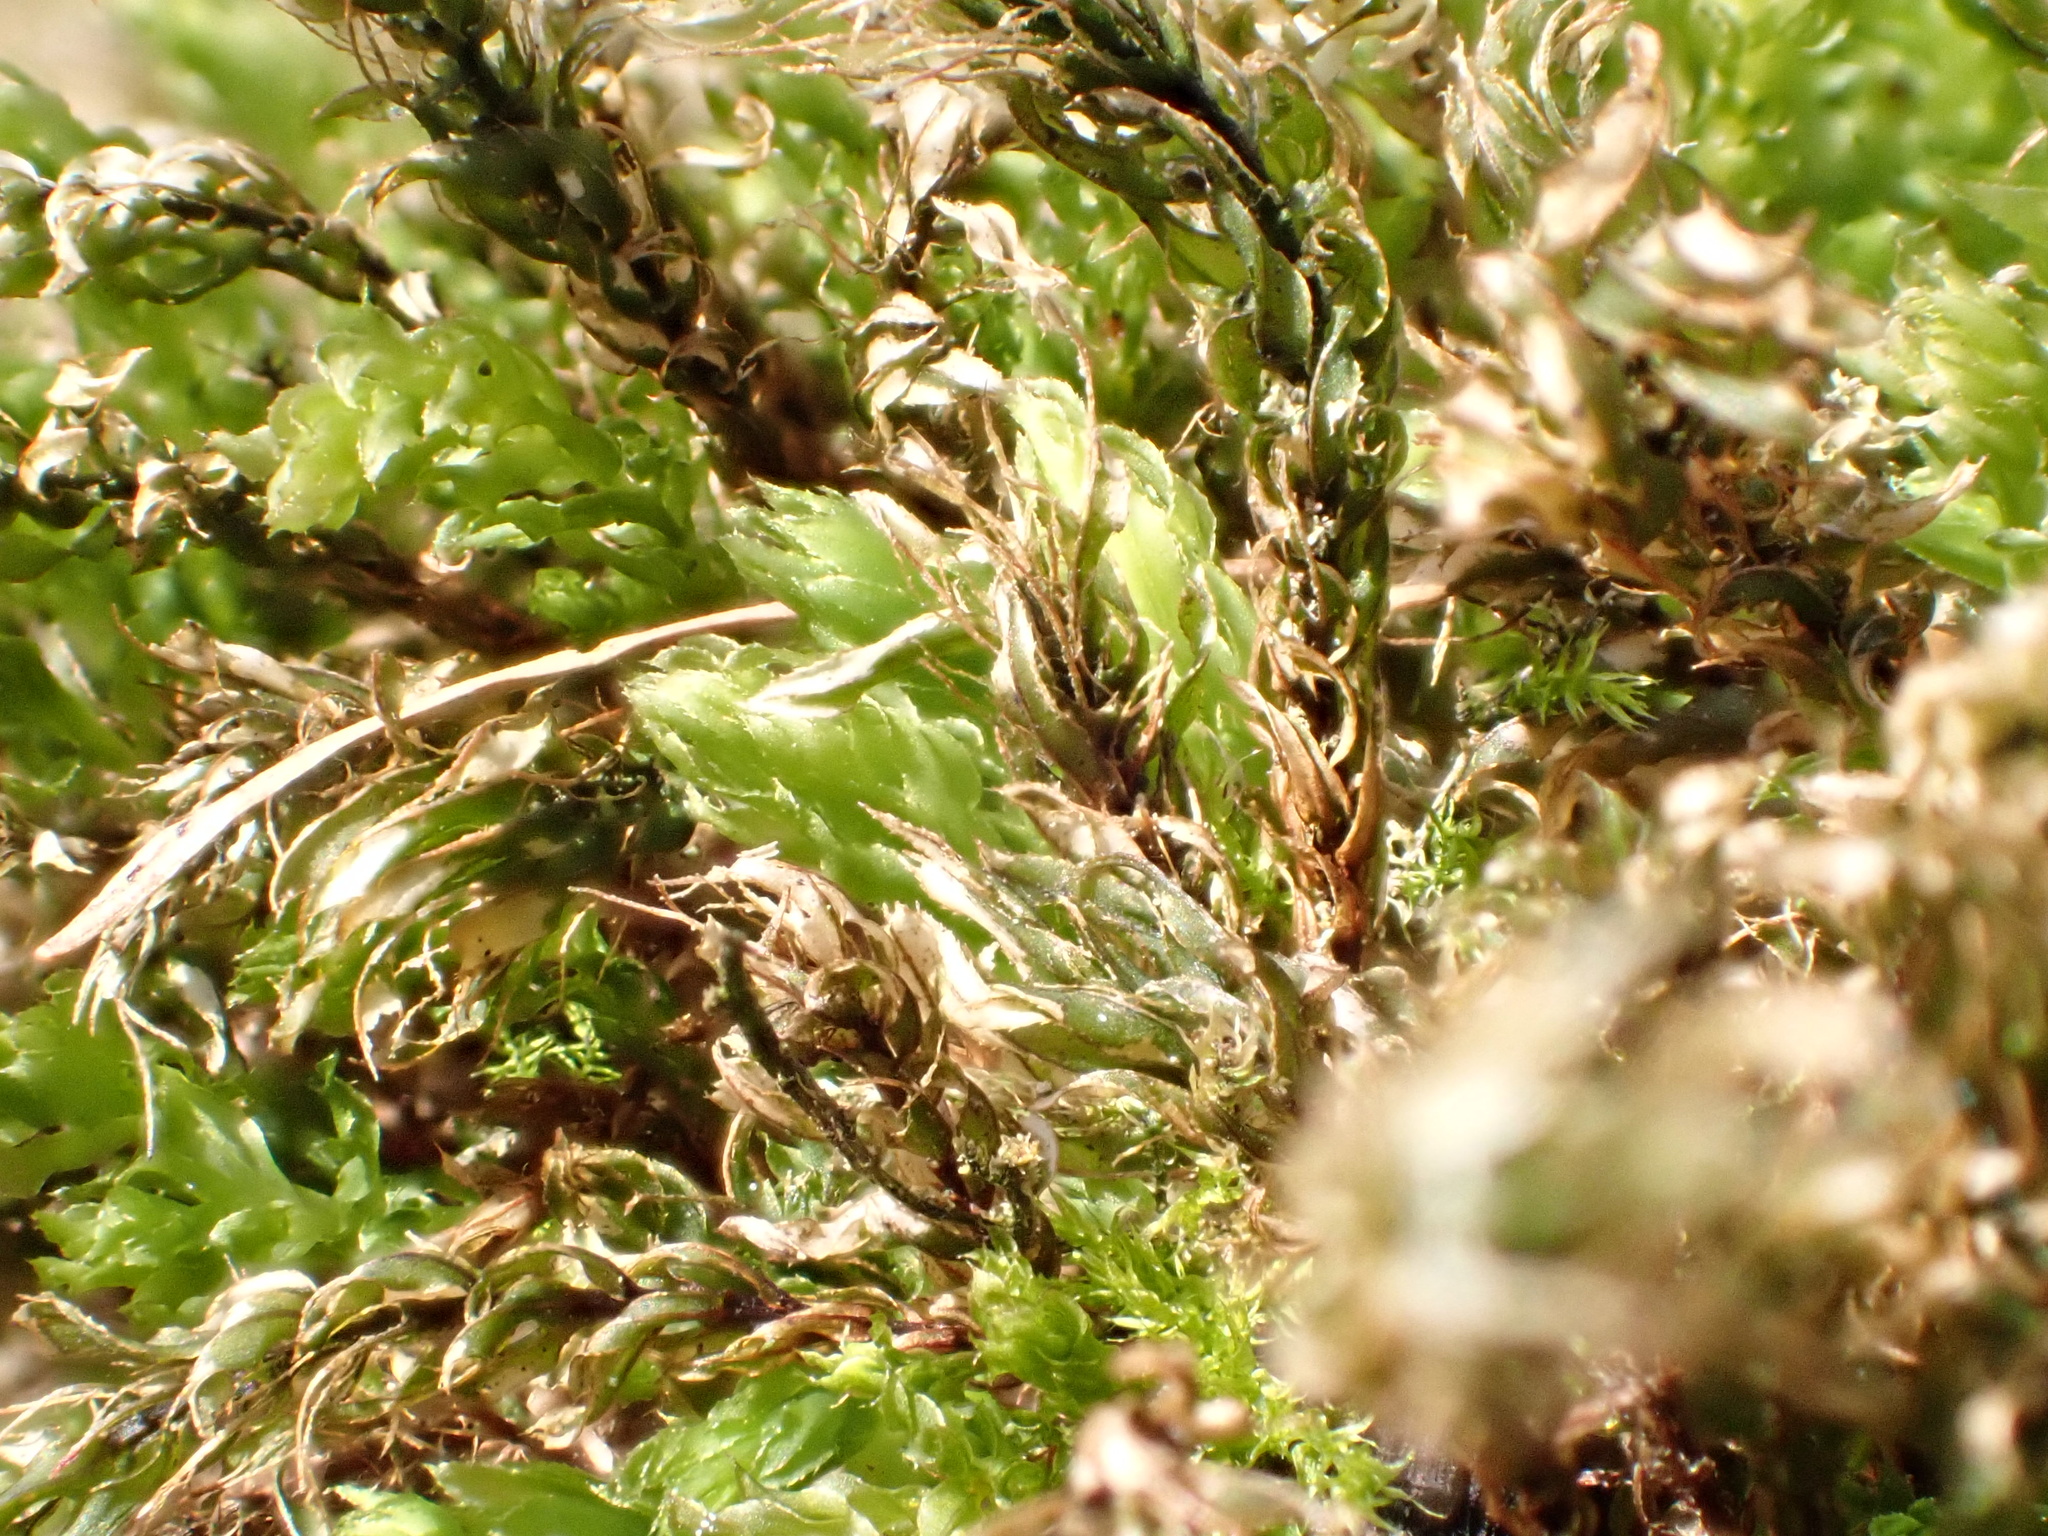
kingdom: Plantae
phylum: Bryophyta
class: Bryopsida
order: Bryales
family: Mniaceae
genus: Mnium
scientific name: Mnium hornum
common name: Swan's-neck leafy moss
